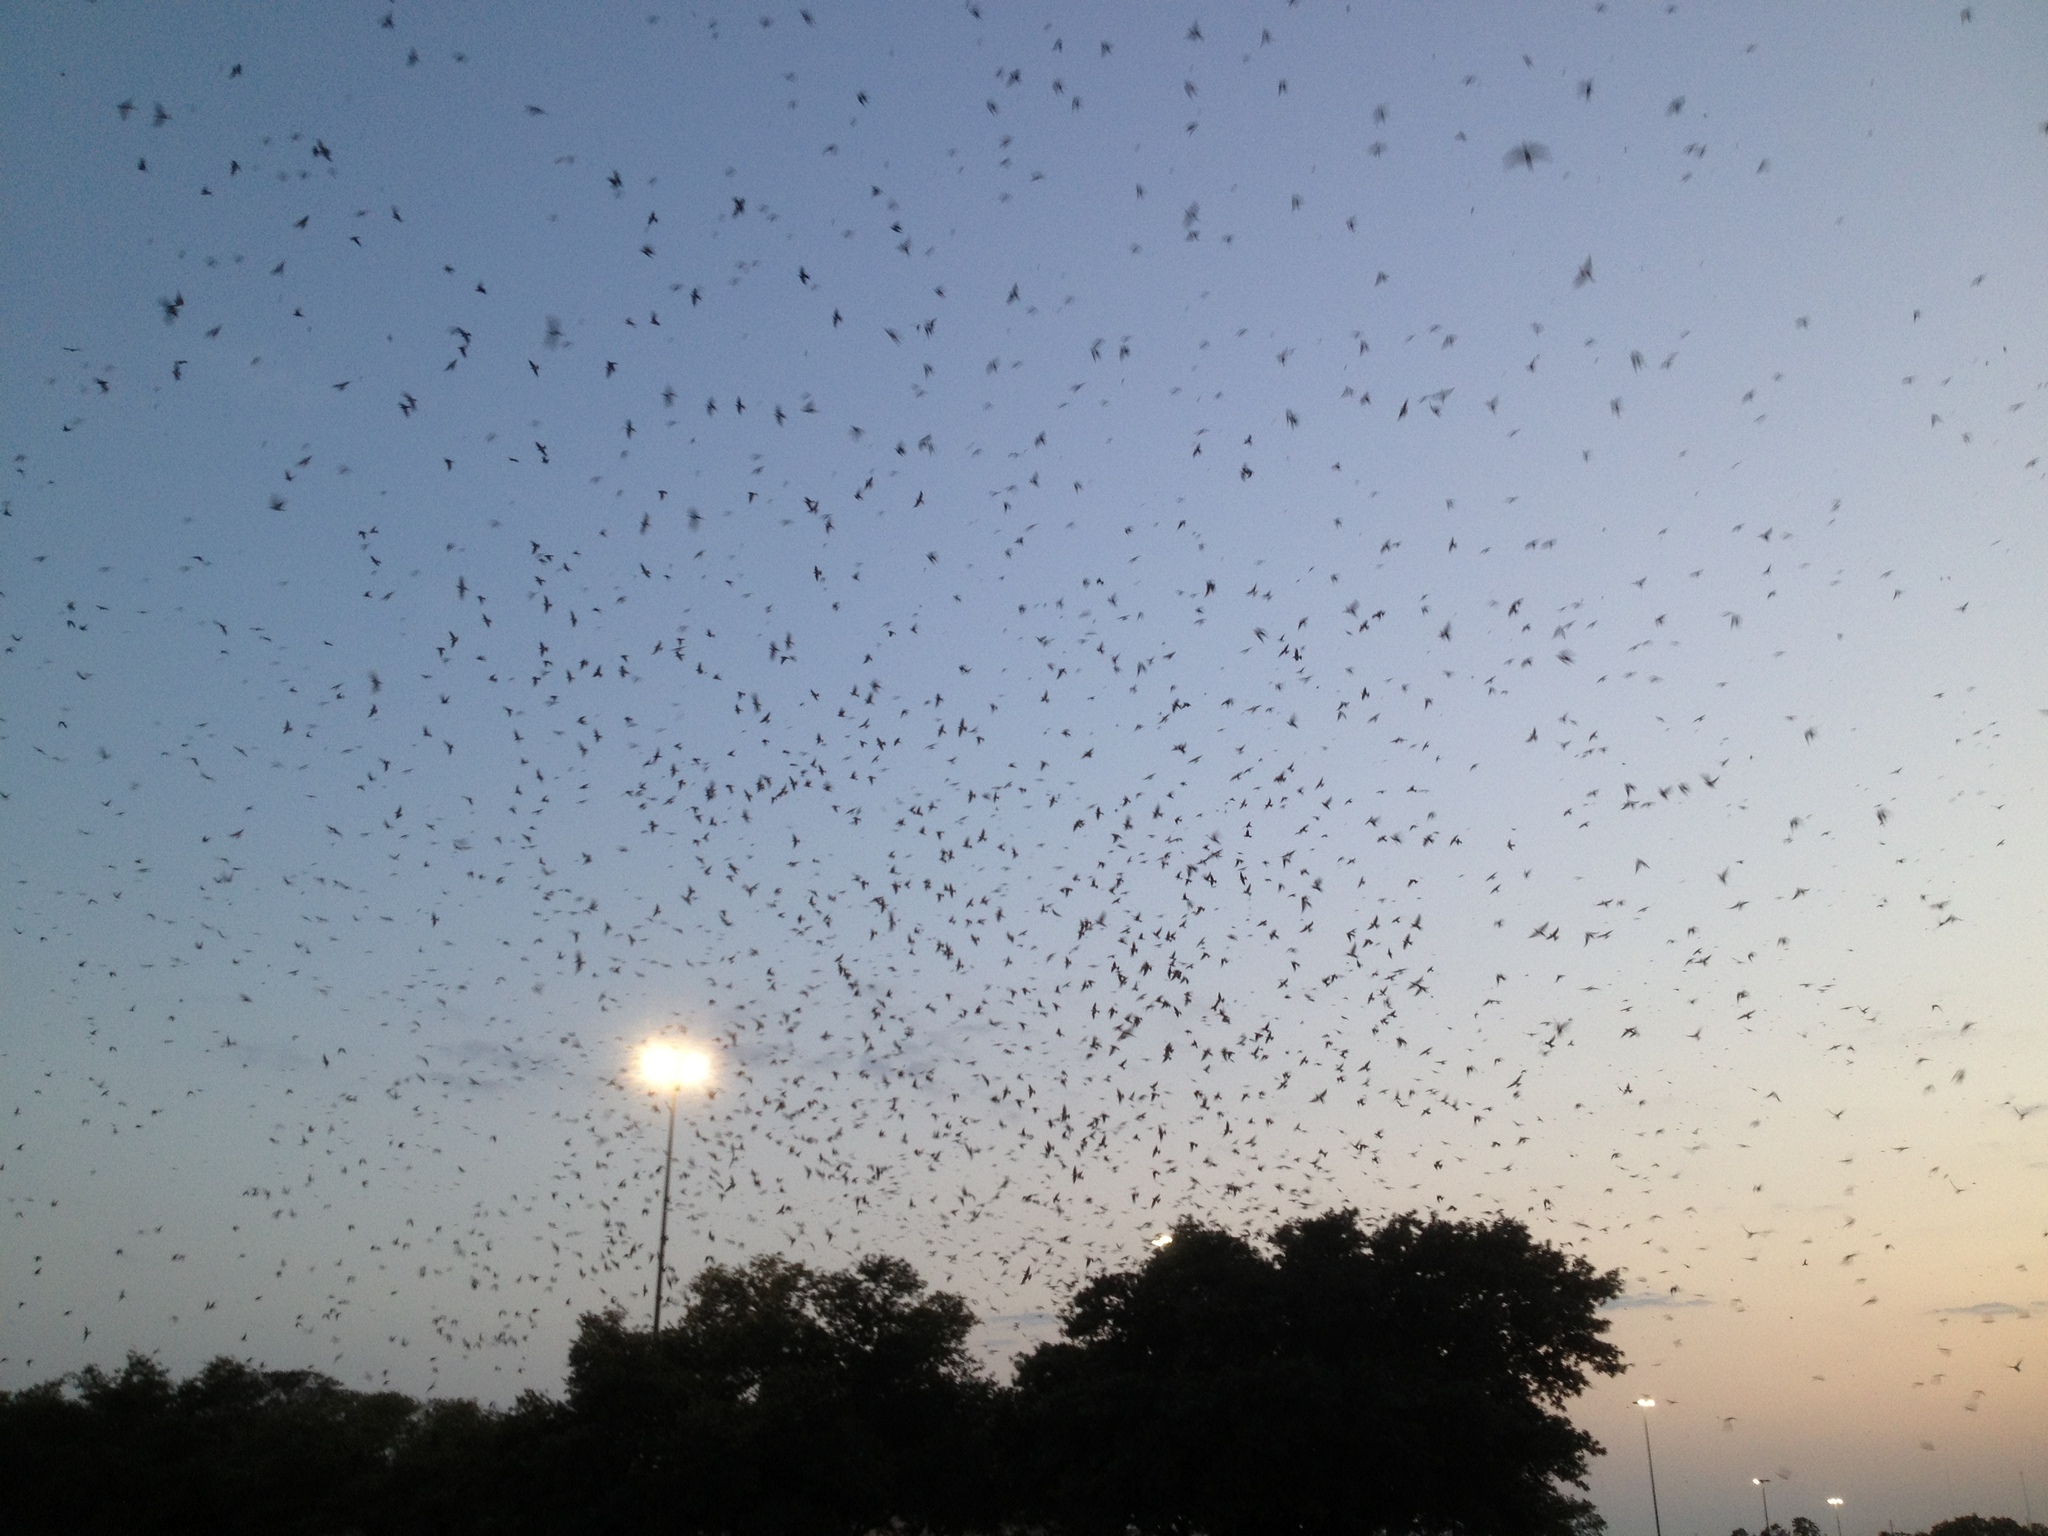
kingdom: Animalia
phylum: Chordata
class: Aves
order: Passeriformes
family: Hirundinidae
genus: Progne
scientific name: Progne subis
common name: Purple martin
